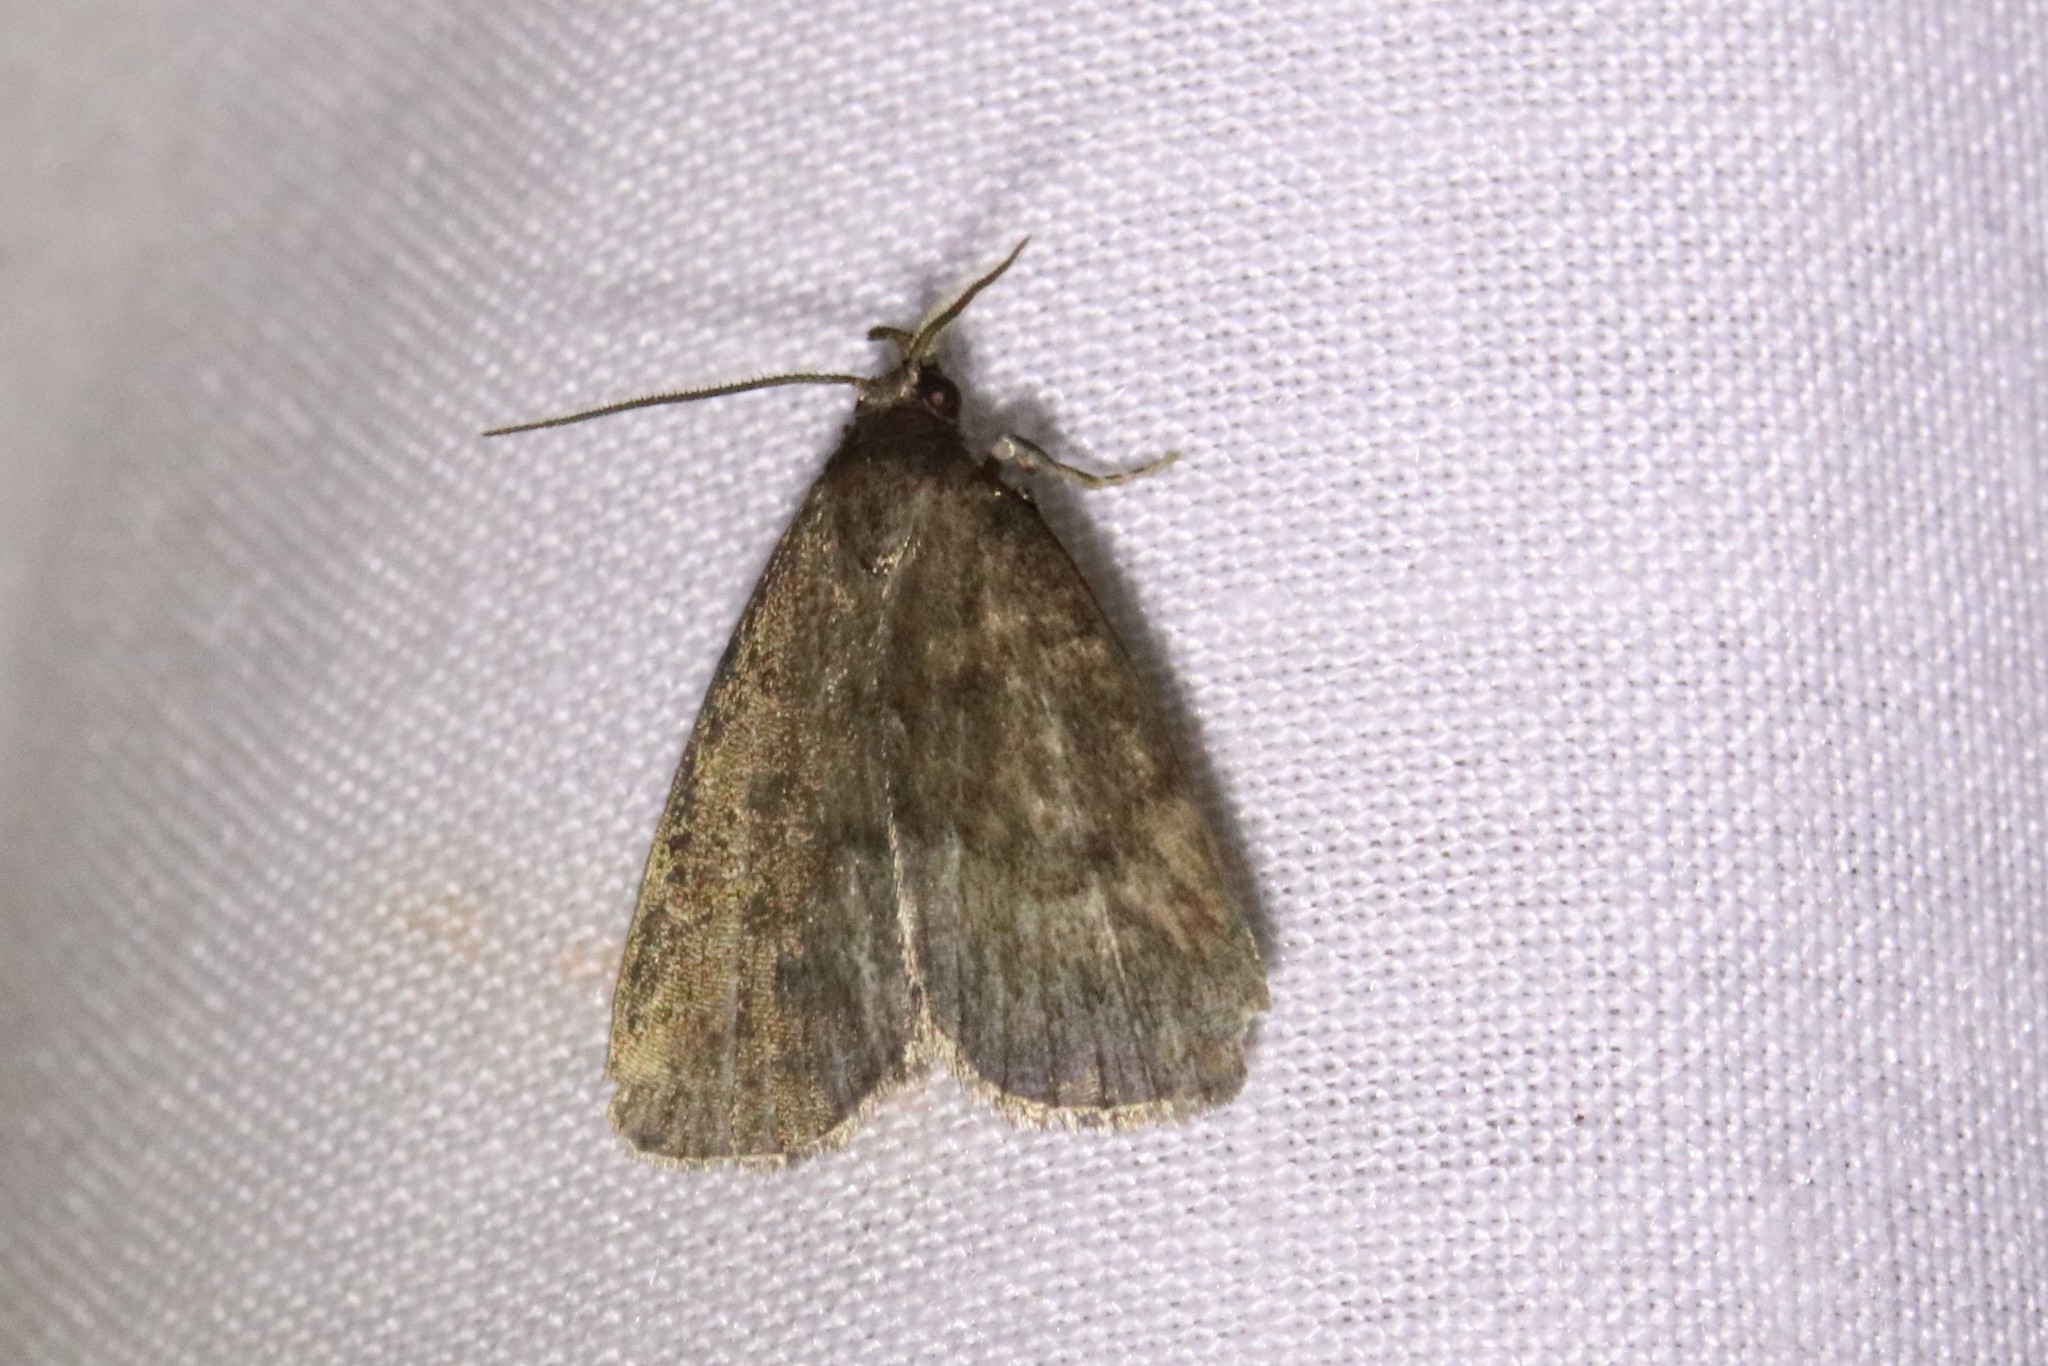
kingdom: Animalia
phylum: Arthropoda
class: Insecta
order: Lepidoptera
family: Erebidae
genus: Idia
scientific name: Idia rotundalis
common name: Rotund idia moth
